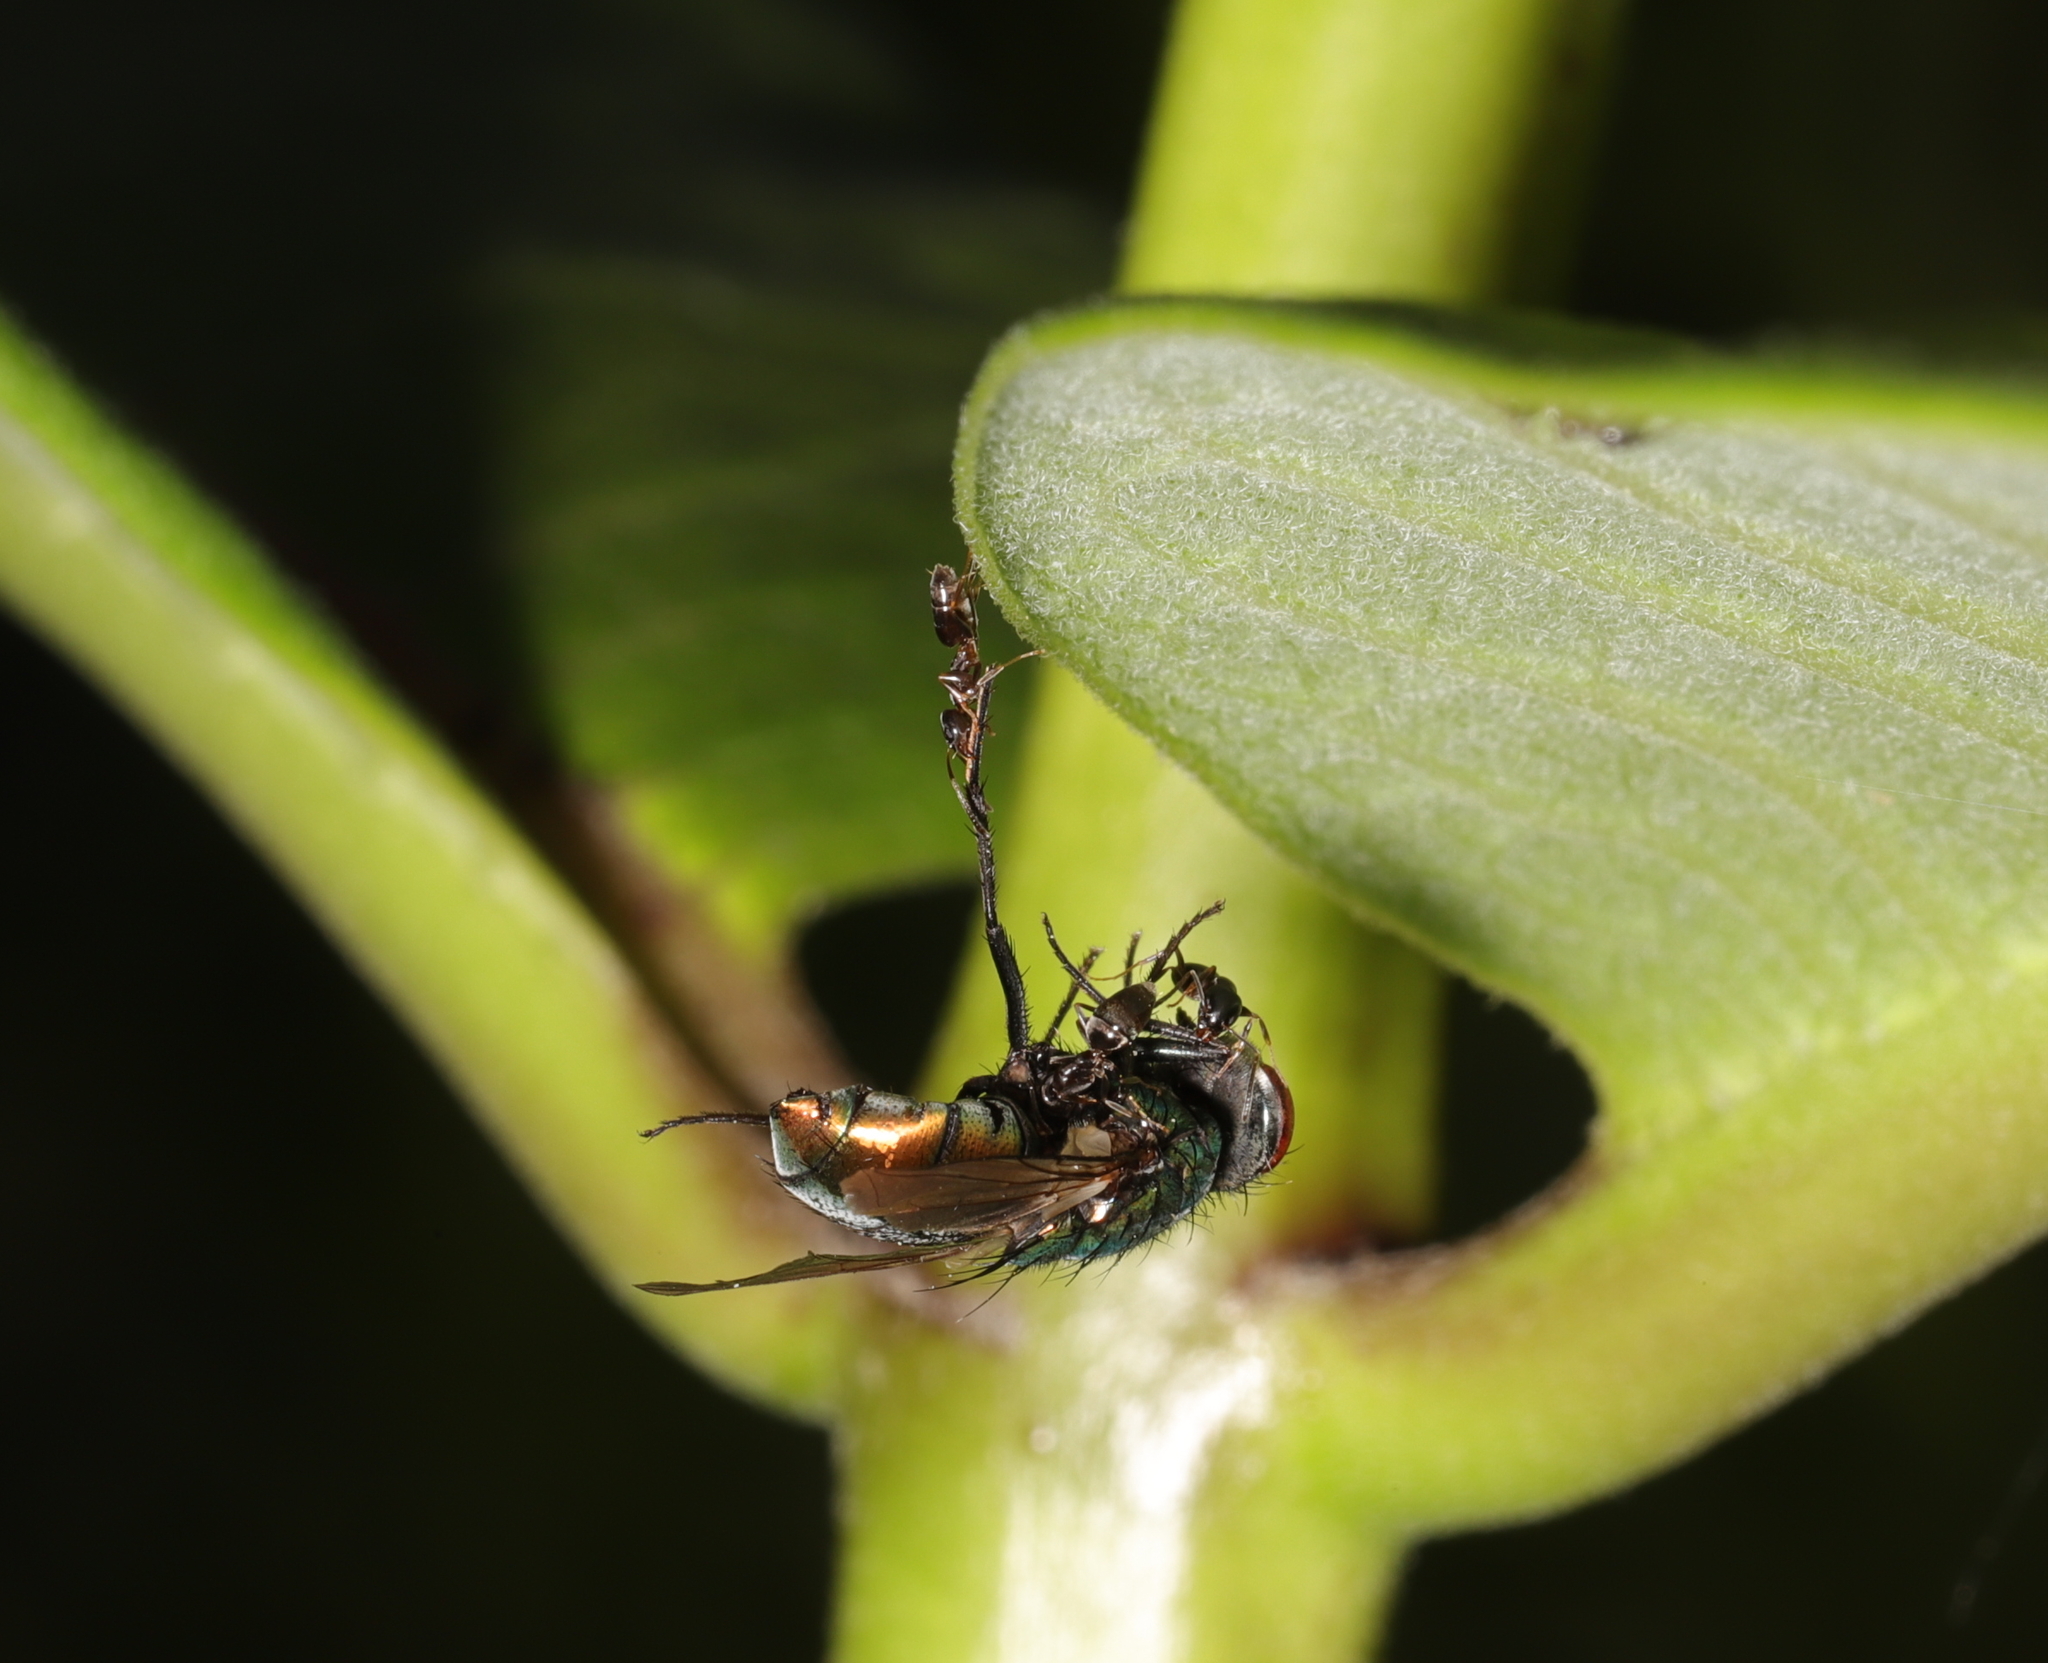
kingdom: Animalia
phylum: Arthropoda
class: Insecta
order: Hymenoptera
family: Formicidae
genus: Tapinoma
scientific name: Tapinoma sessile
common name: Odorous house ant
